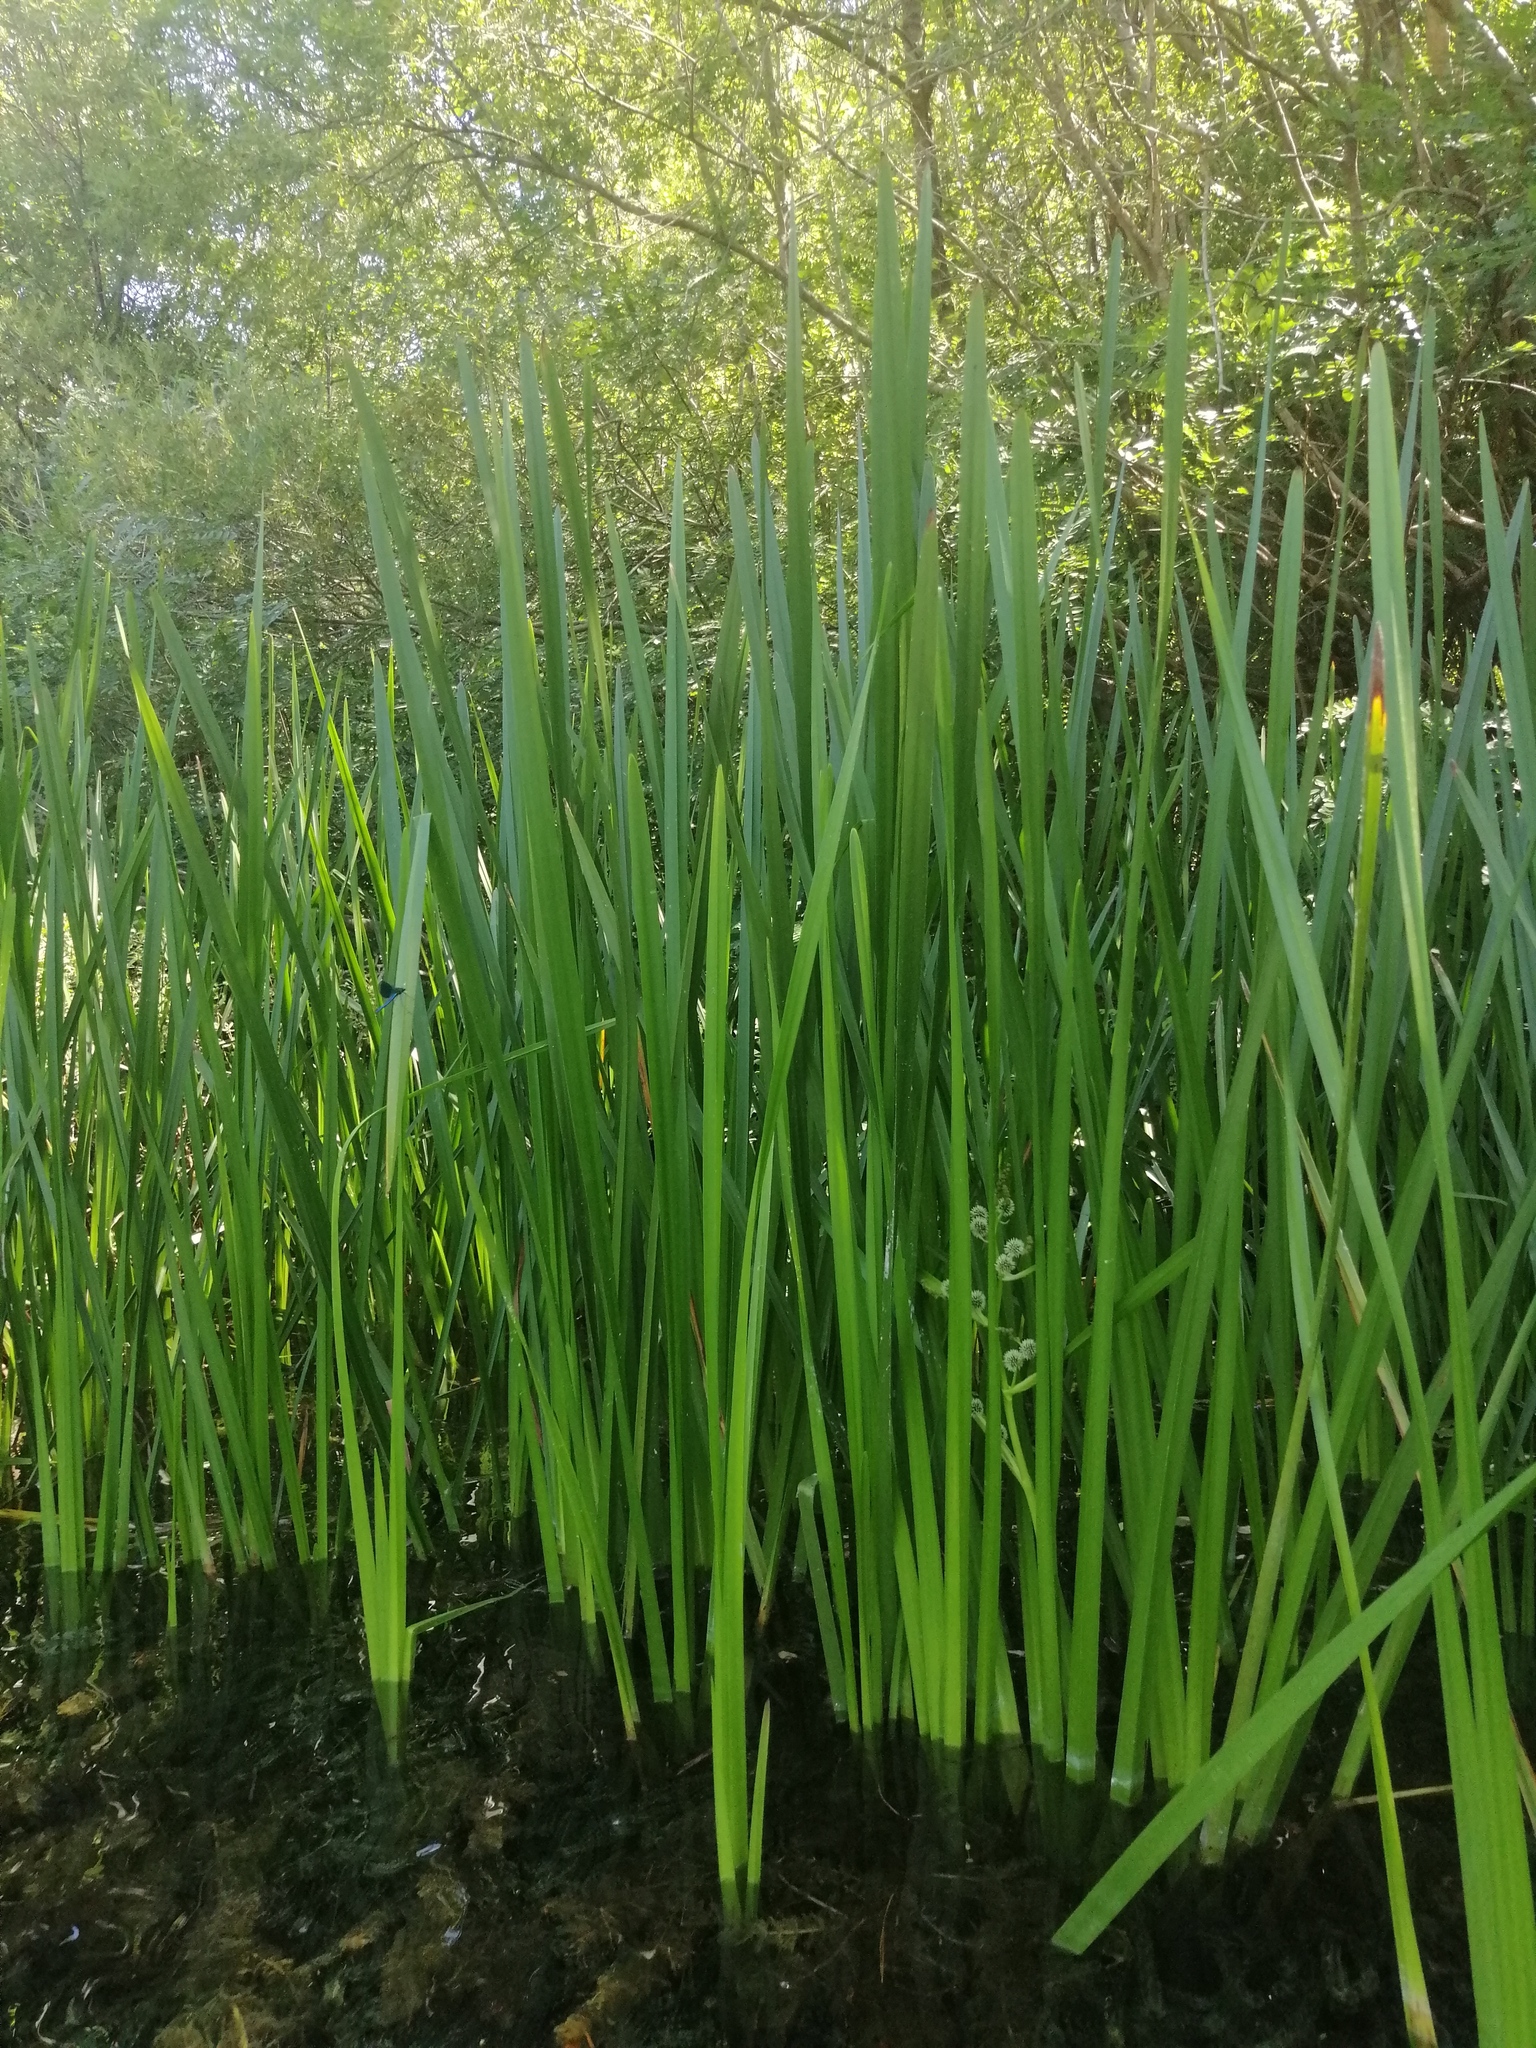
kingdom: Plantae
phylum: Tracheophyta
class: Liliopsida
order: Poales
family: Typhaceae
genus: Sparganium
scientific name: Sparganium erectum
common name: Branched bur-reed
